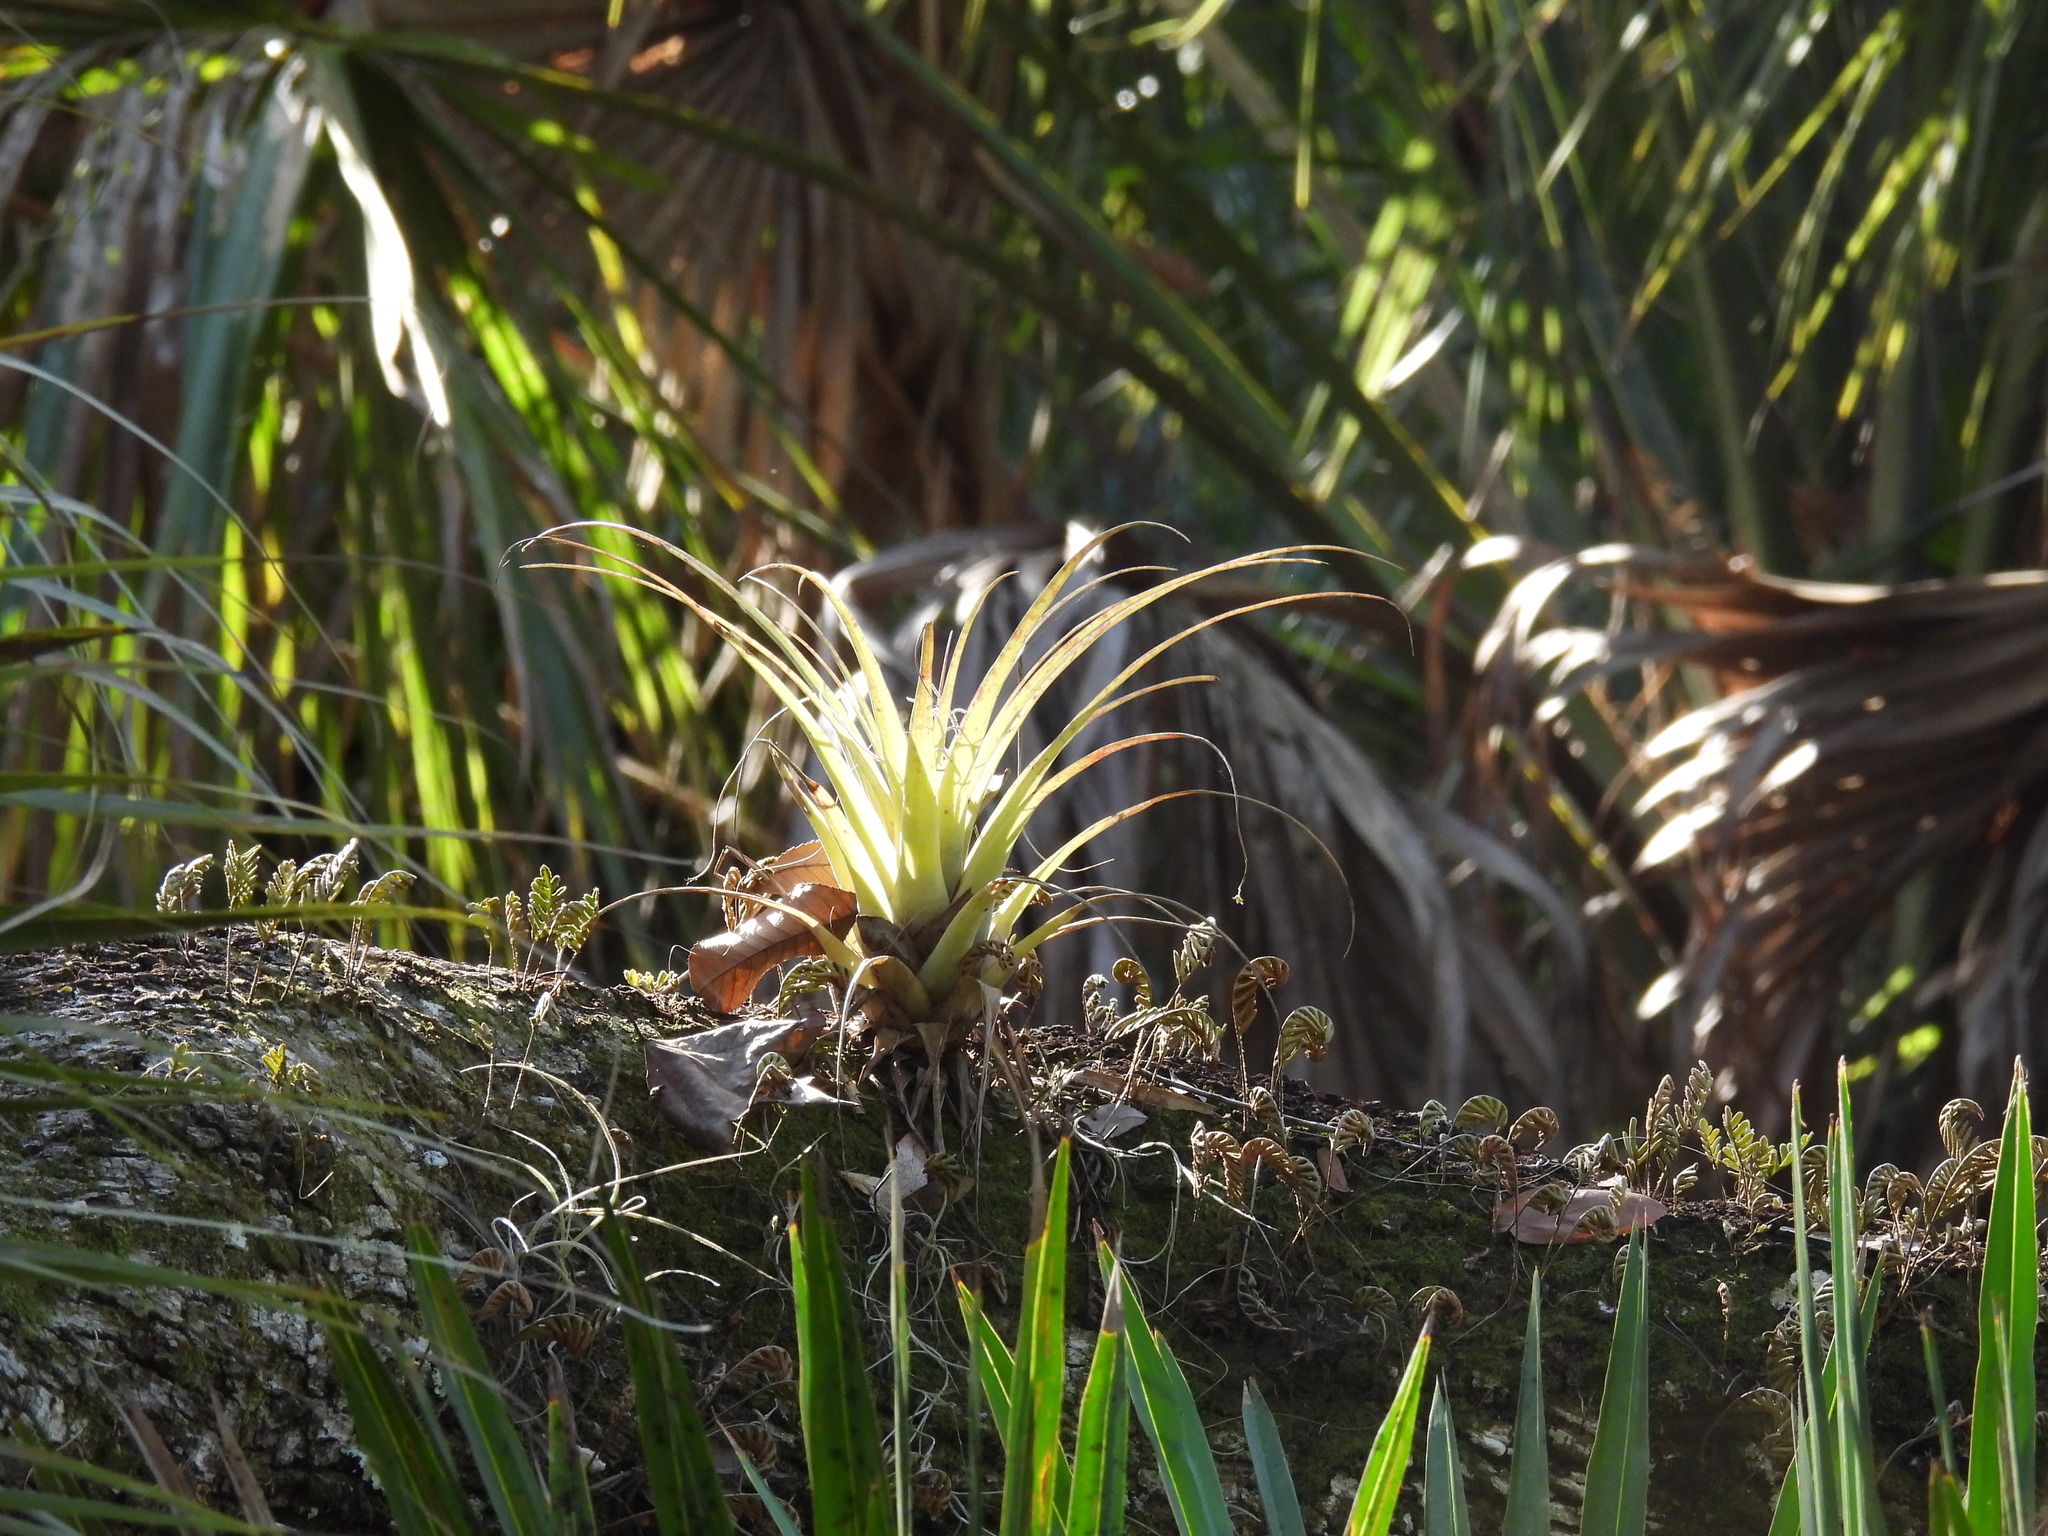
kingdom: Plantae
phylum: Tracheophyta
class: Liliopsida
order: Poales
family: Bromeliaceae
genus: Tillandsia
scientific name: Tillandsia utriculata
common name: Wild pine
